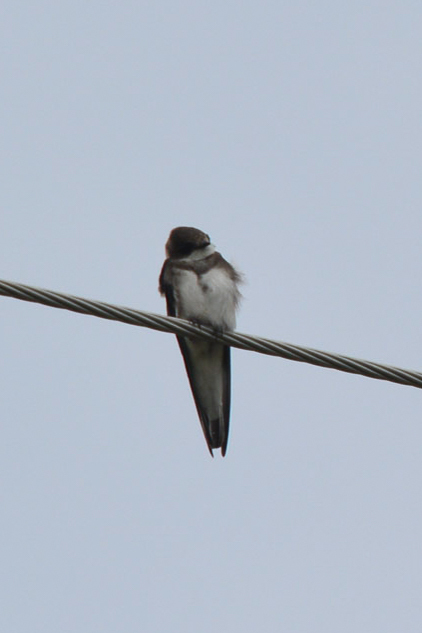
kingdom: Animalia
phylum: Chordata
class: Aves
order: Passeriformes
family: Hirundinidae
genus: Riparia
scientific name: Riparia riparia
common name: Sand martin
